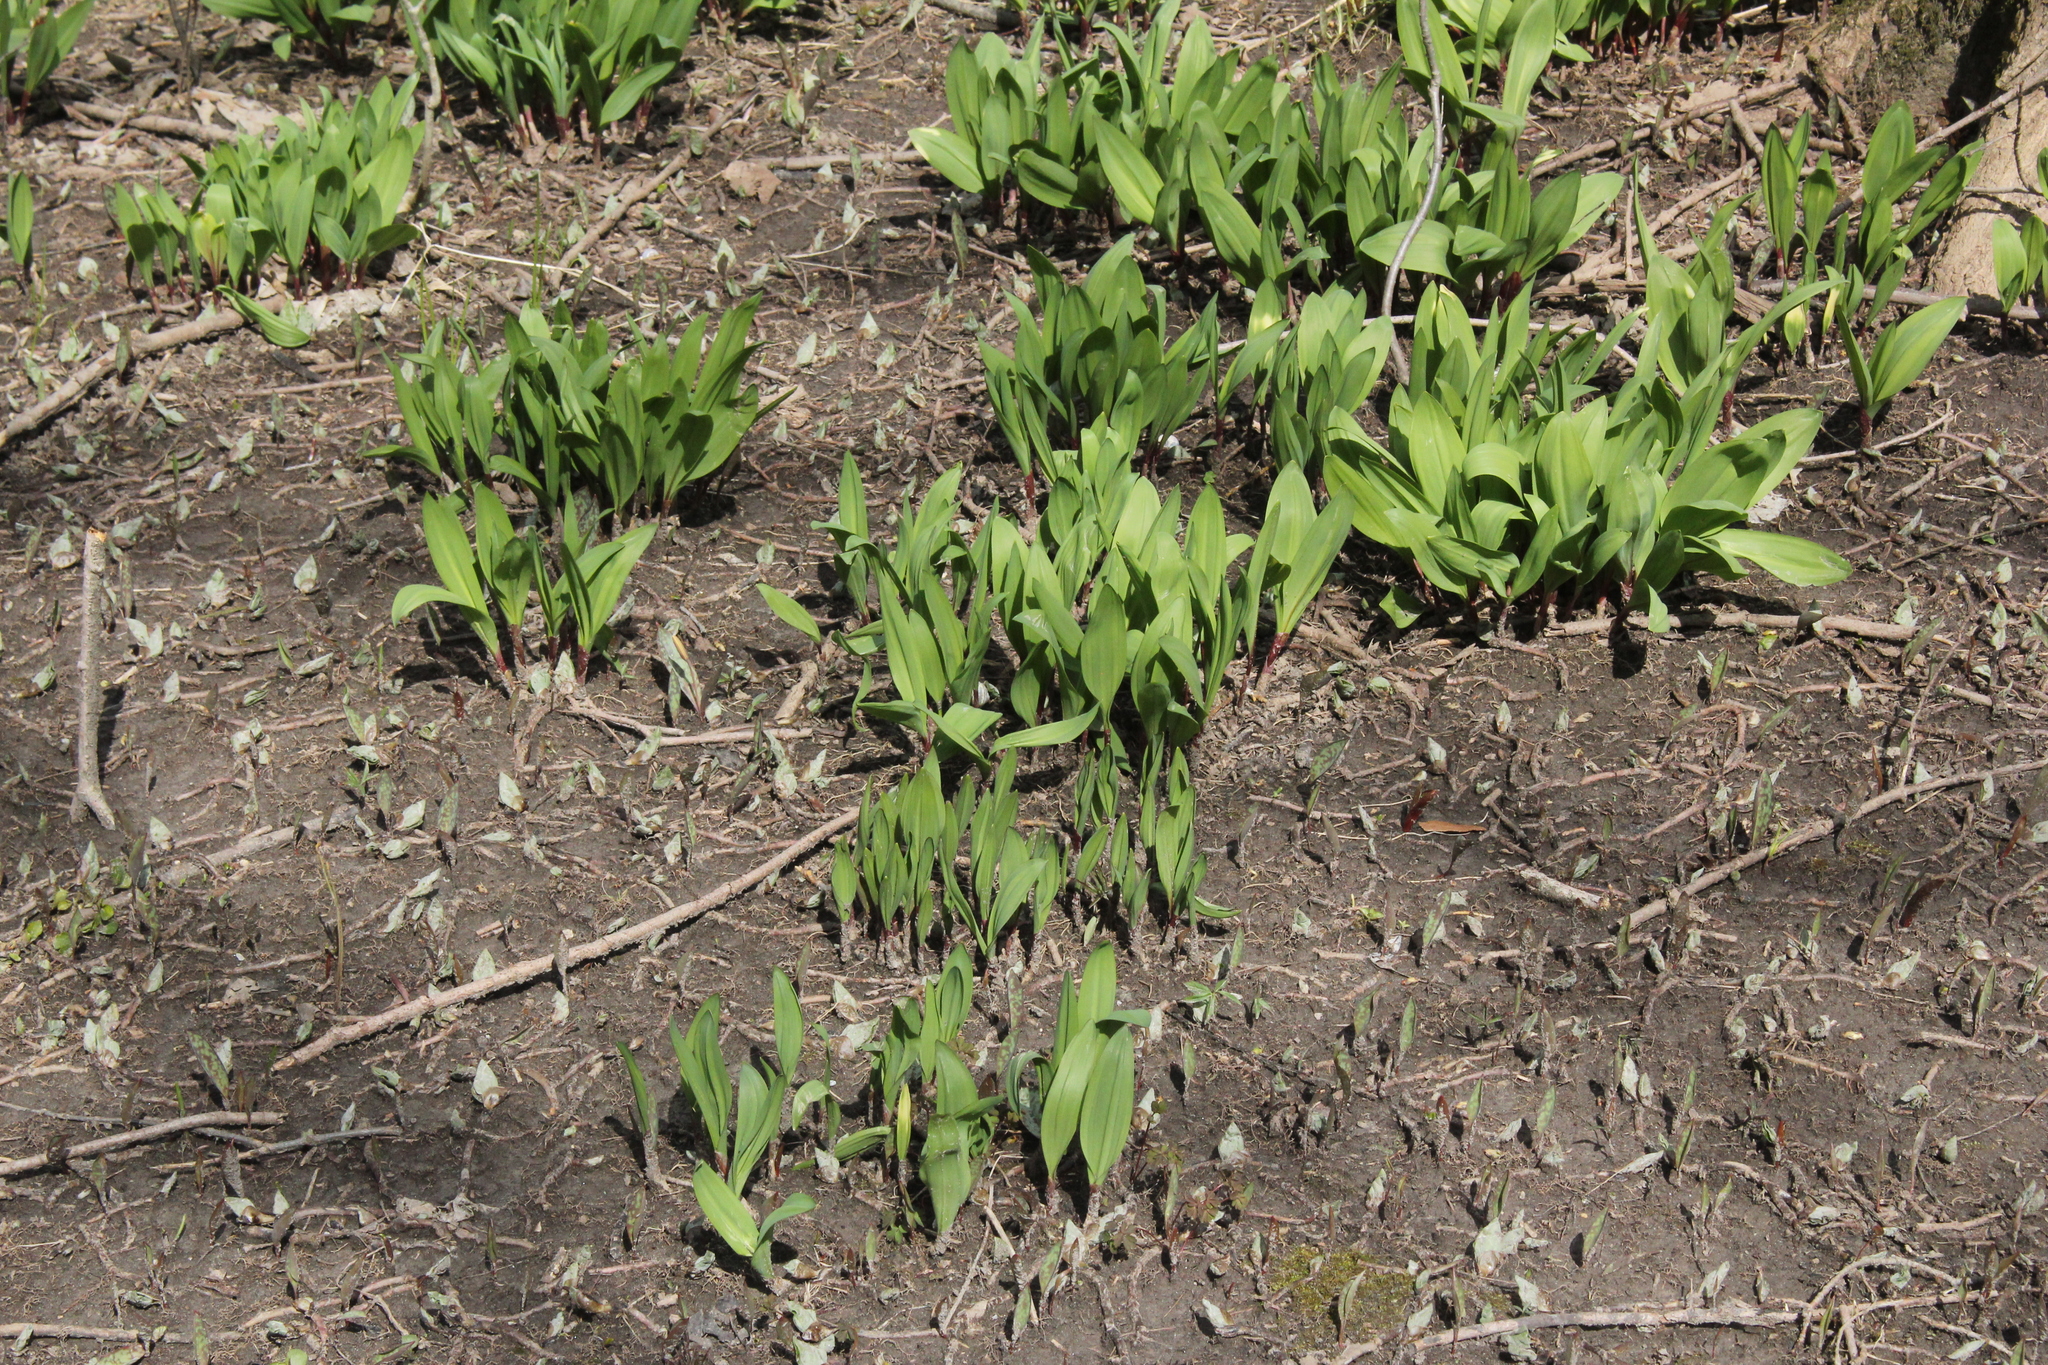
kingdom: Plantae
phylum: Tracheophyta
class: Liliopsida
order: Asparagales
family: Amaryllidaceae
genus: Allium
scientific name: Allium tricoccum
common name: Ramp
